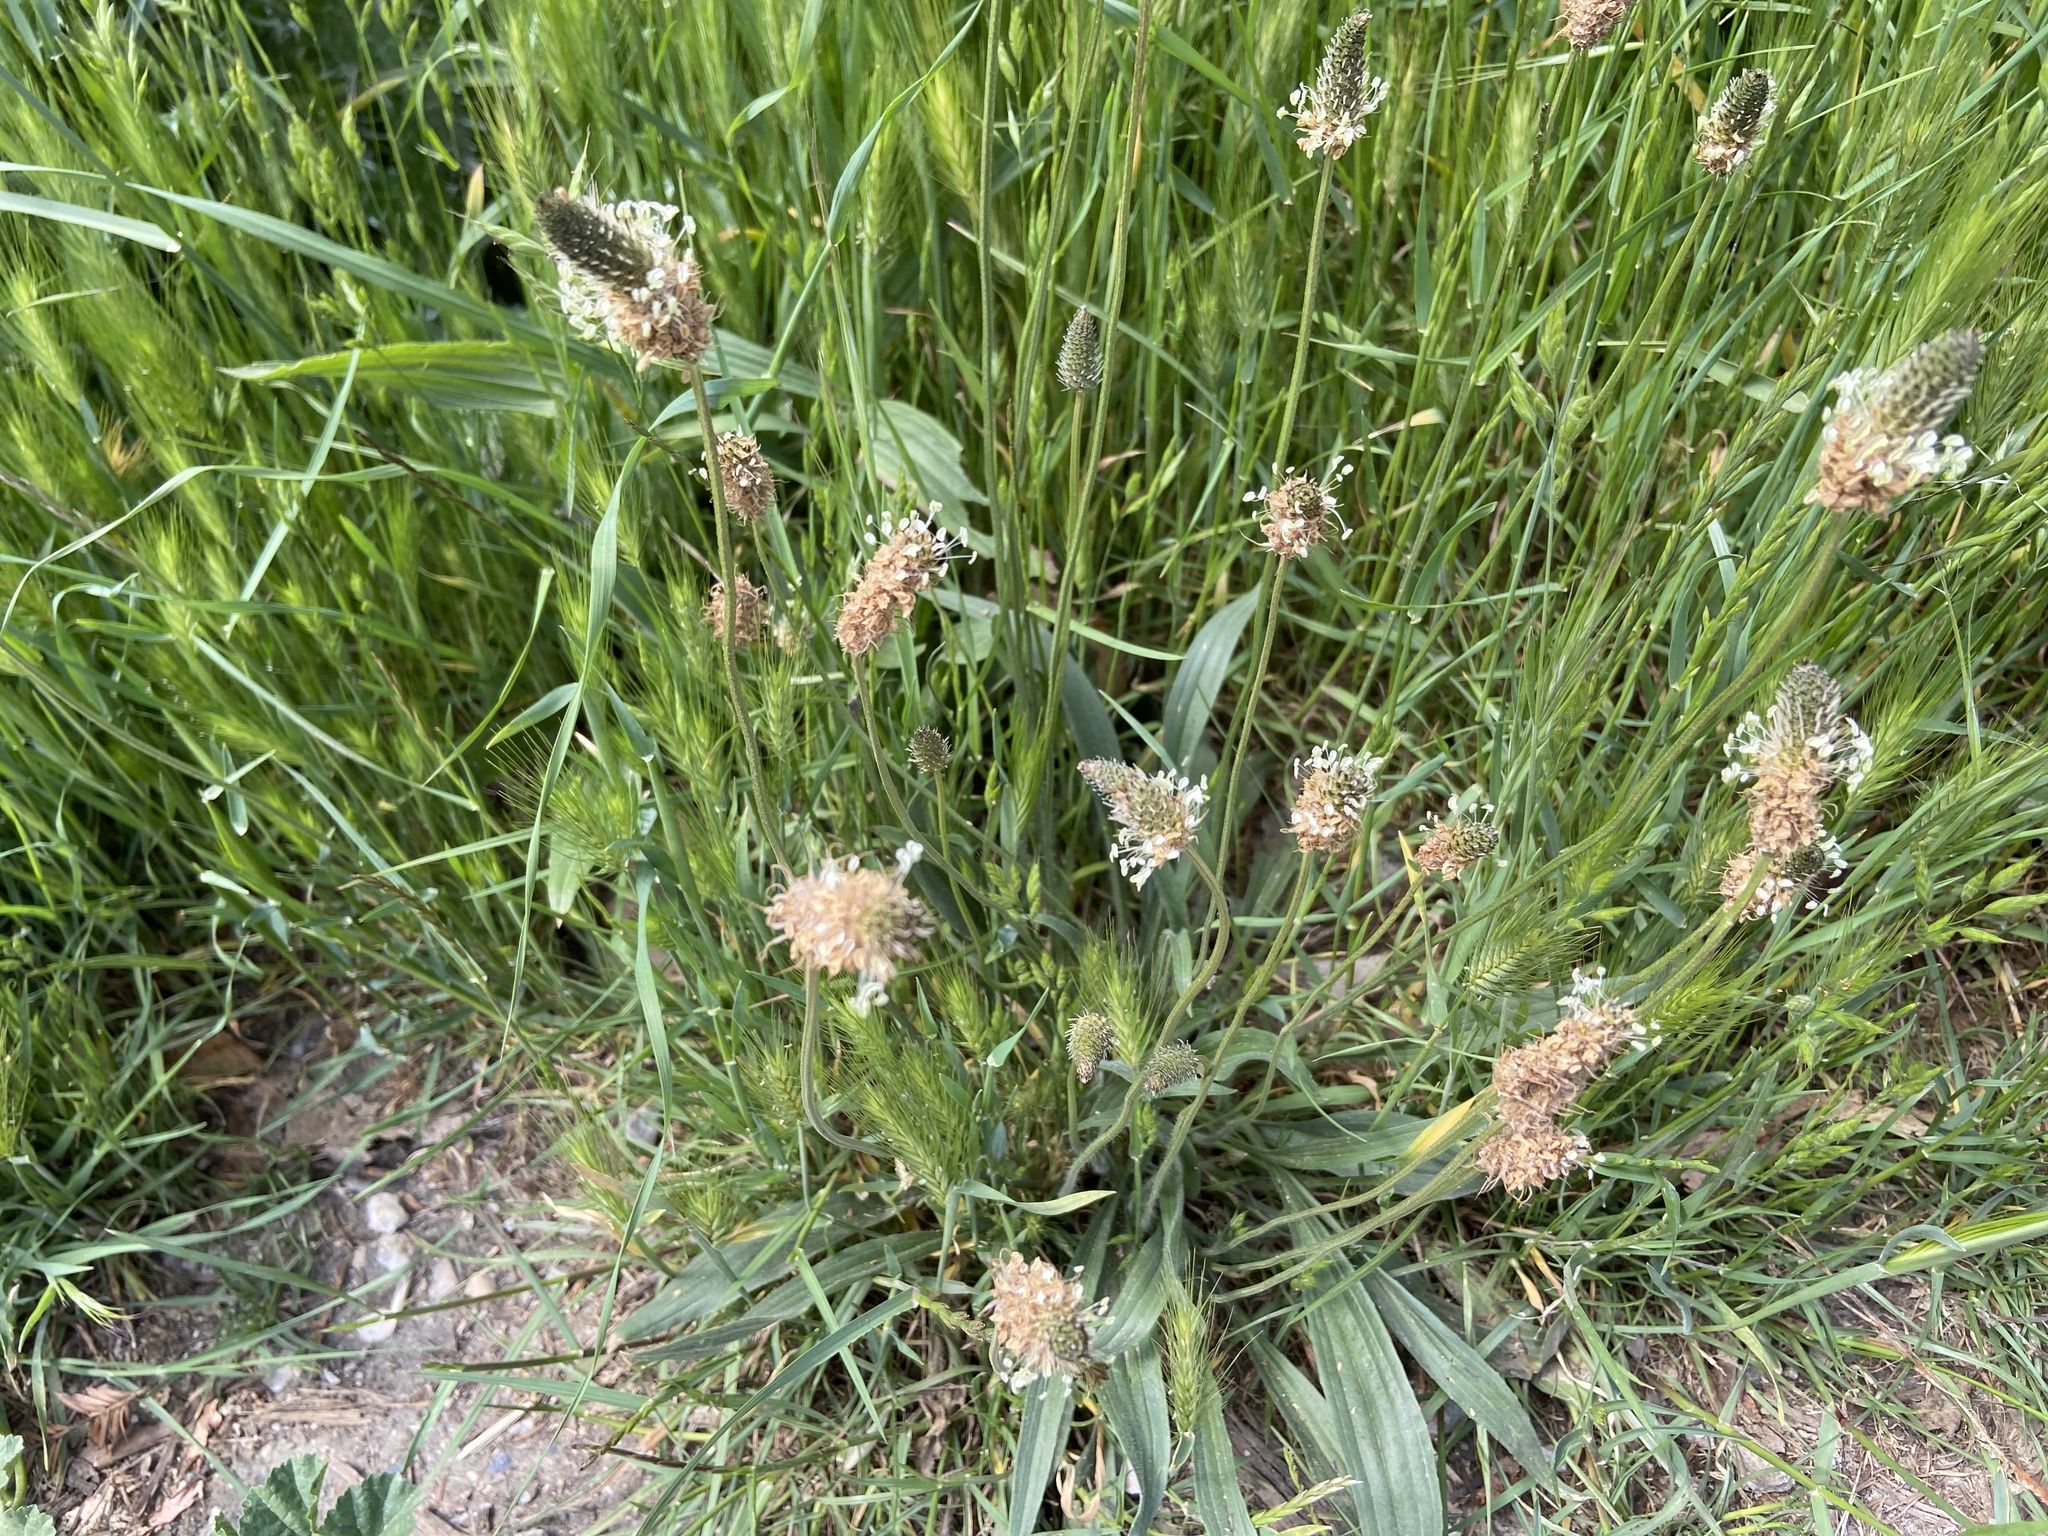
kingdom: Plantae
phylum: Tracheophyta
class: Magnoliopsida
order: Lamiales
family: Plantaginaceae
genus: Plantago
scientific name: Plantago lanceolata
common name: Ribwort plantain
